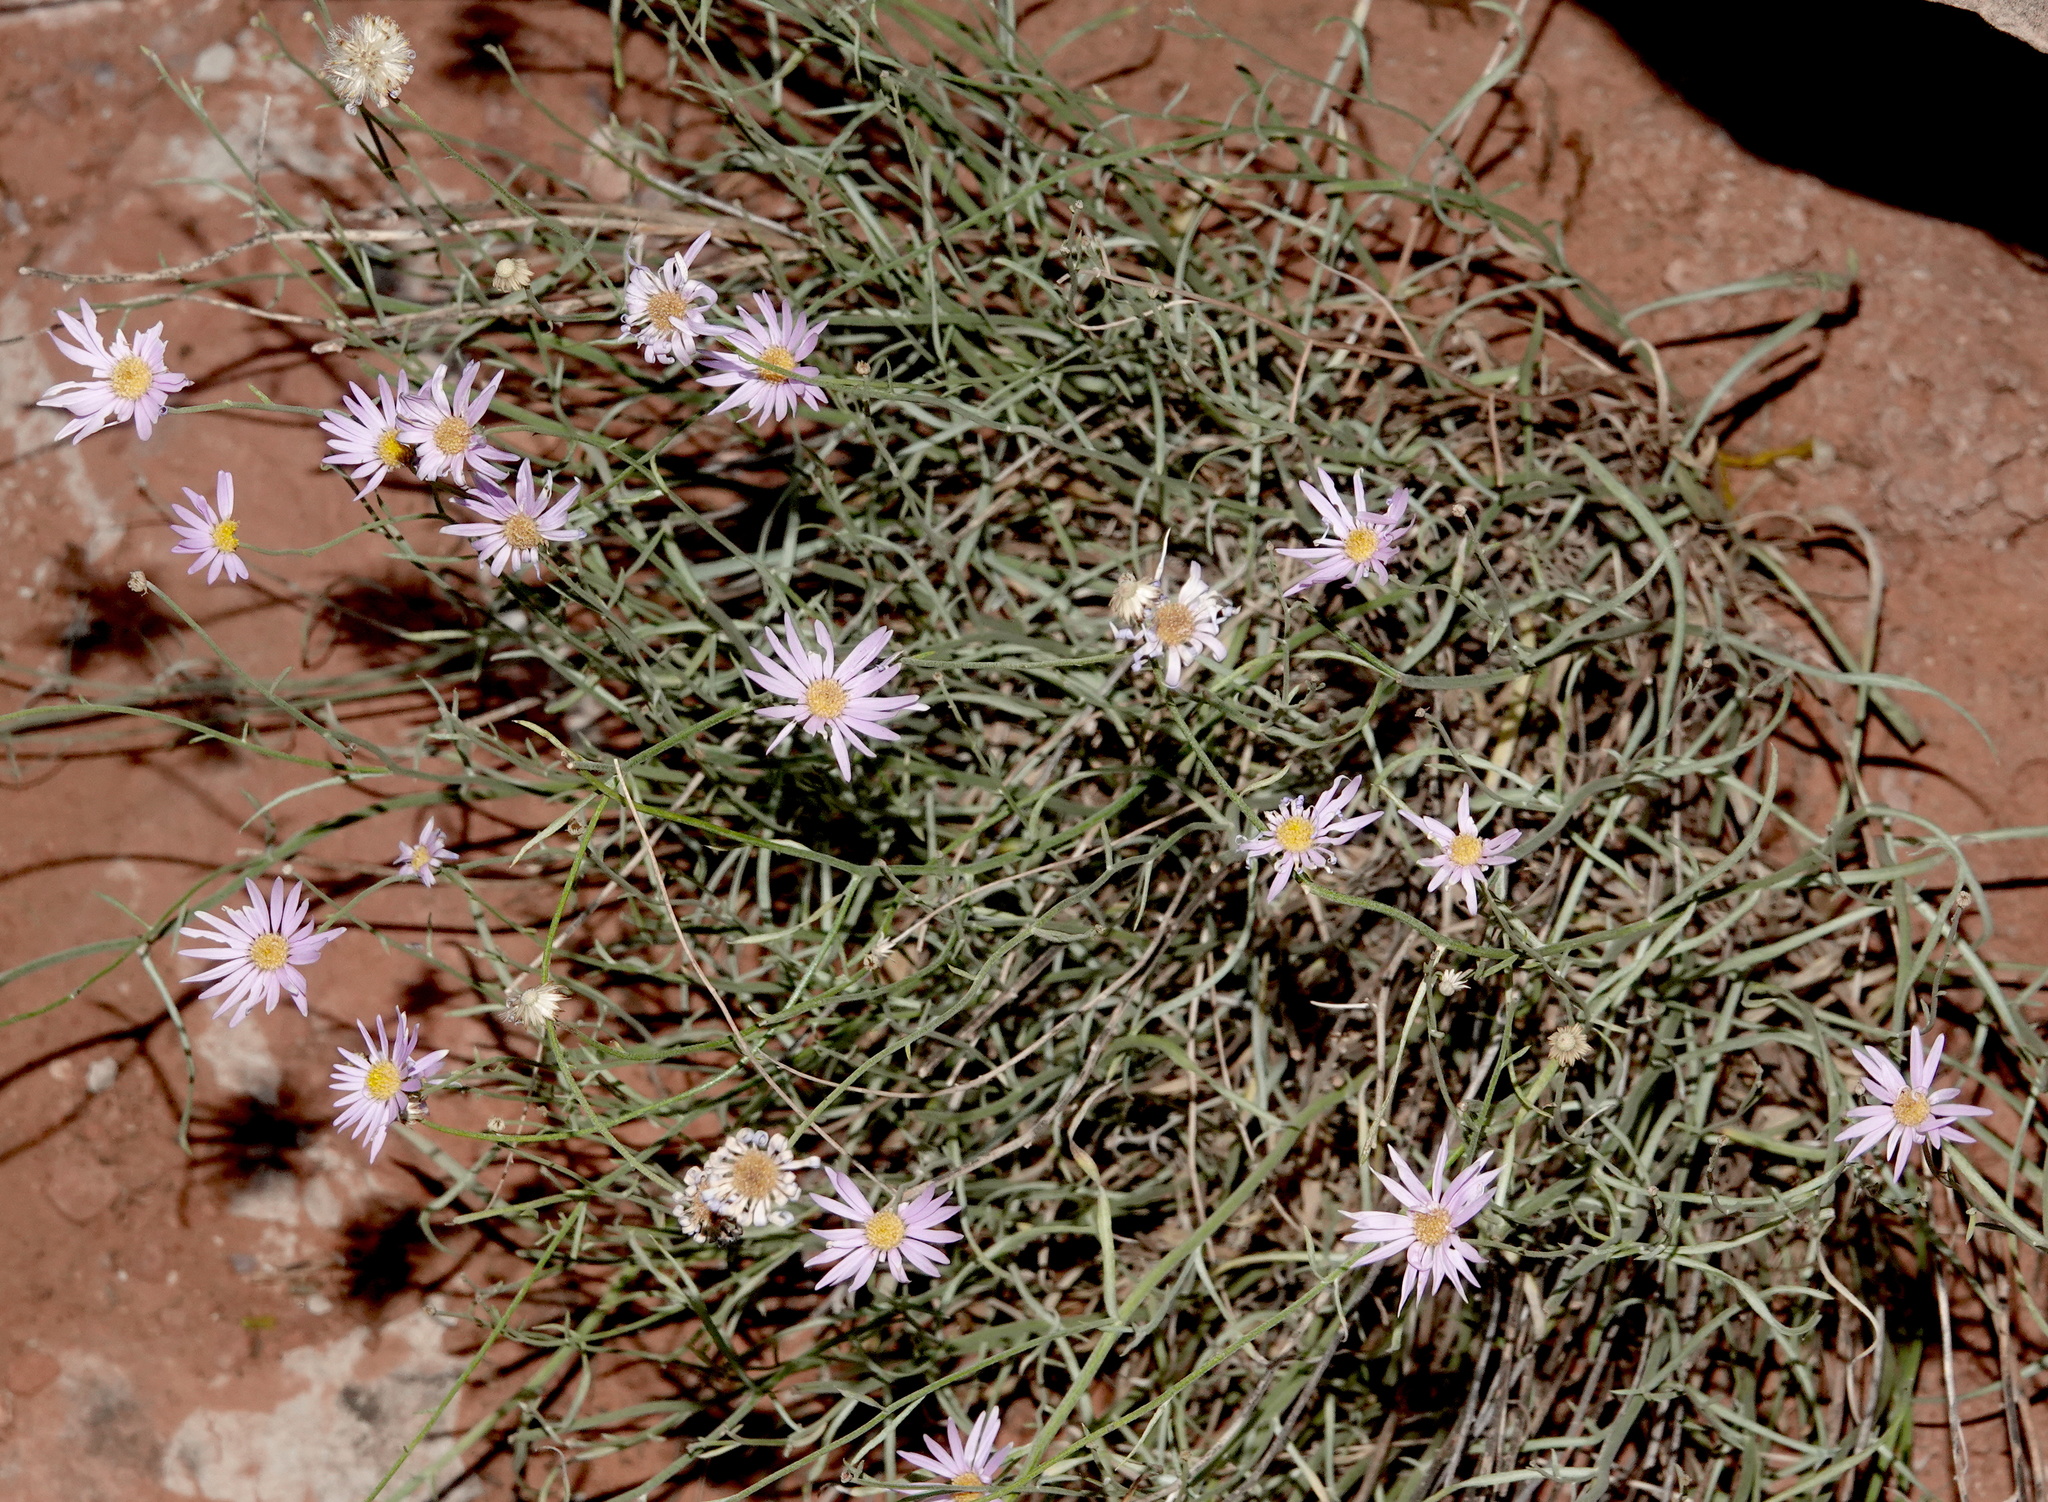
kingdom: Plantae
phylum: Tracheophyta
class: Magnoliopsida
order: Asterales
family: Asteraceae
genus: Erigeron
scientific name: Erigeron utahensis
